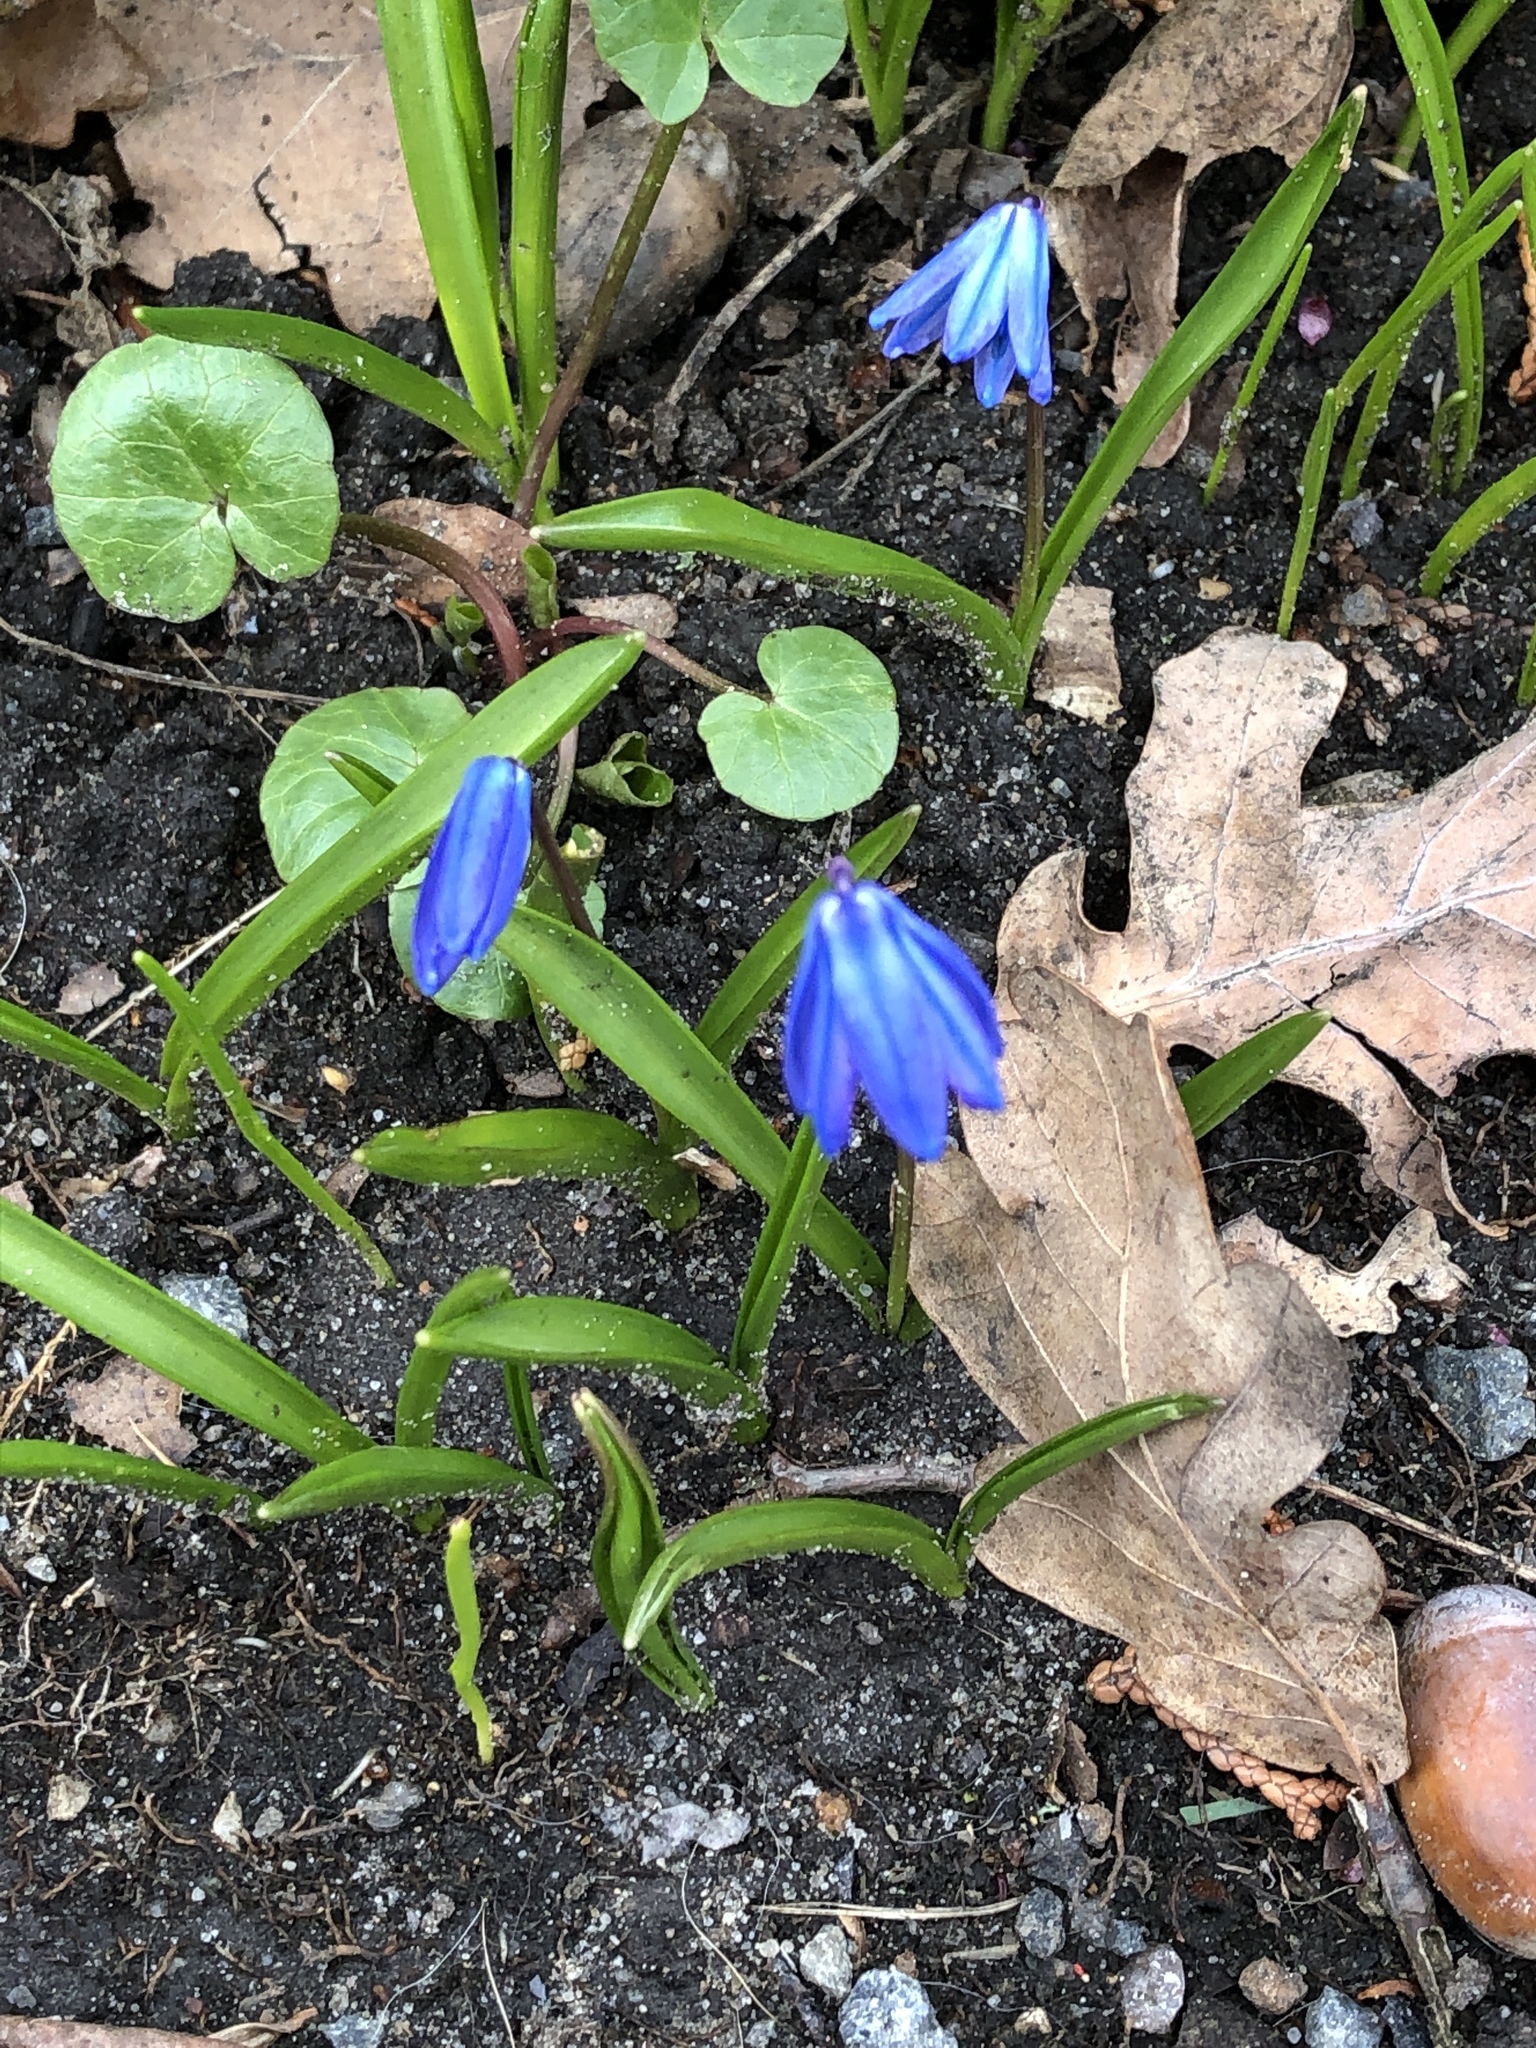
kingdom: Plantae
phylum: Tracheophyta
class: Liliopsida
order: Asparagales
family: Asparagaceae
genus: Scilla
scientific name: Scilla siberica
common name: Siberian squill
